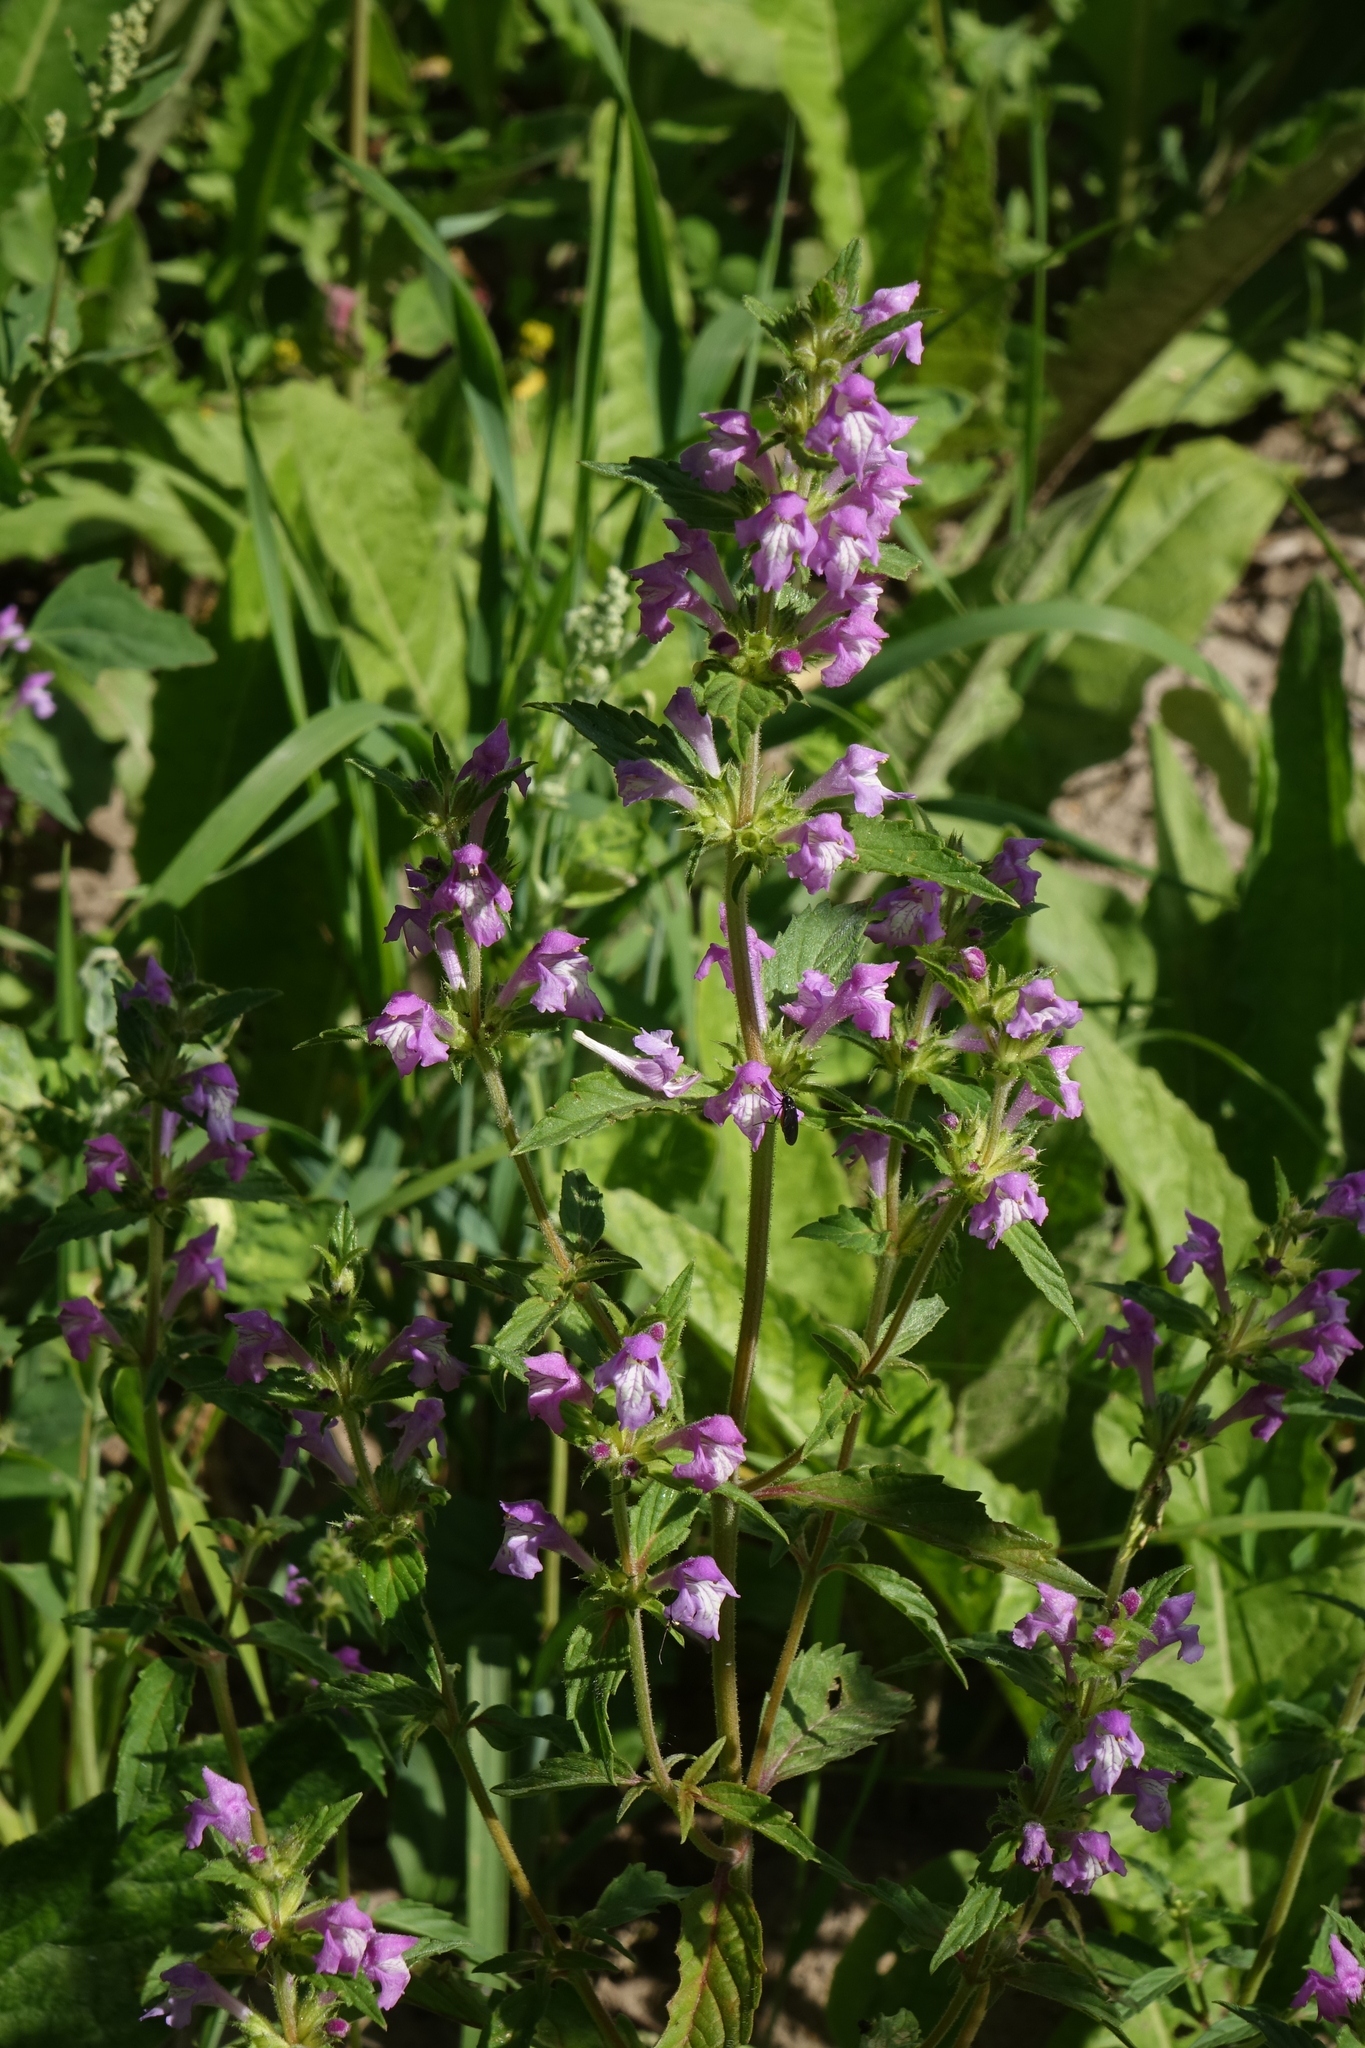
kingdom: Plantae
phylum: Tracheophyta
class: Magnoliopsida
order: Lamiales
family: Lamiaceae
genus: Galeopsis
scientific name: Galeopsis ladanum
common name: Broad-leaved hemp-nettle
